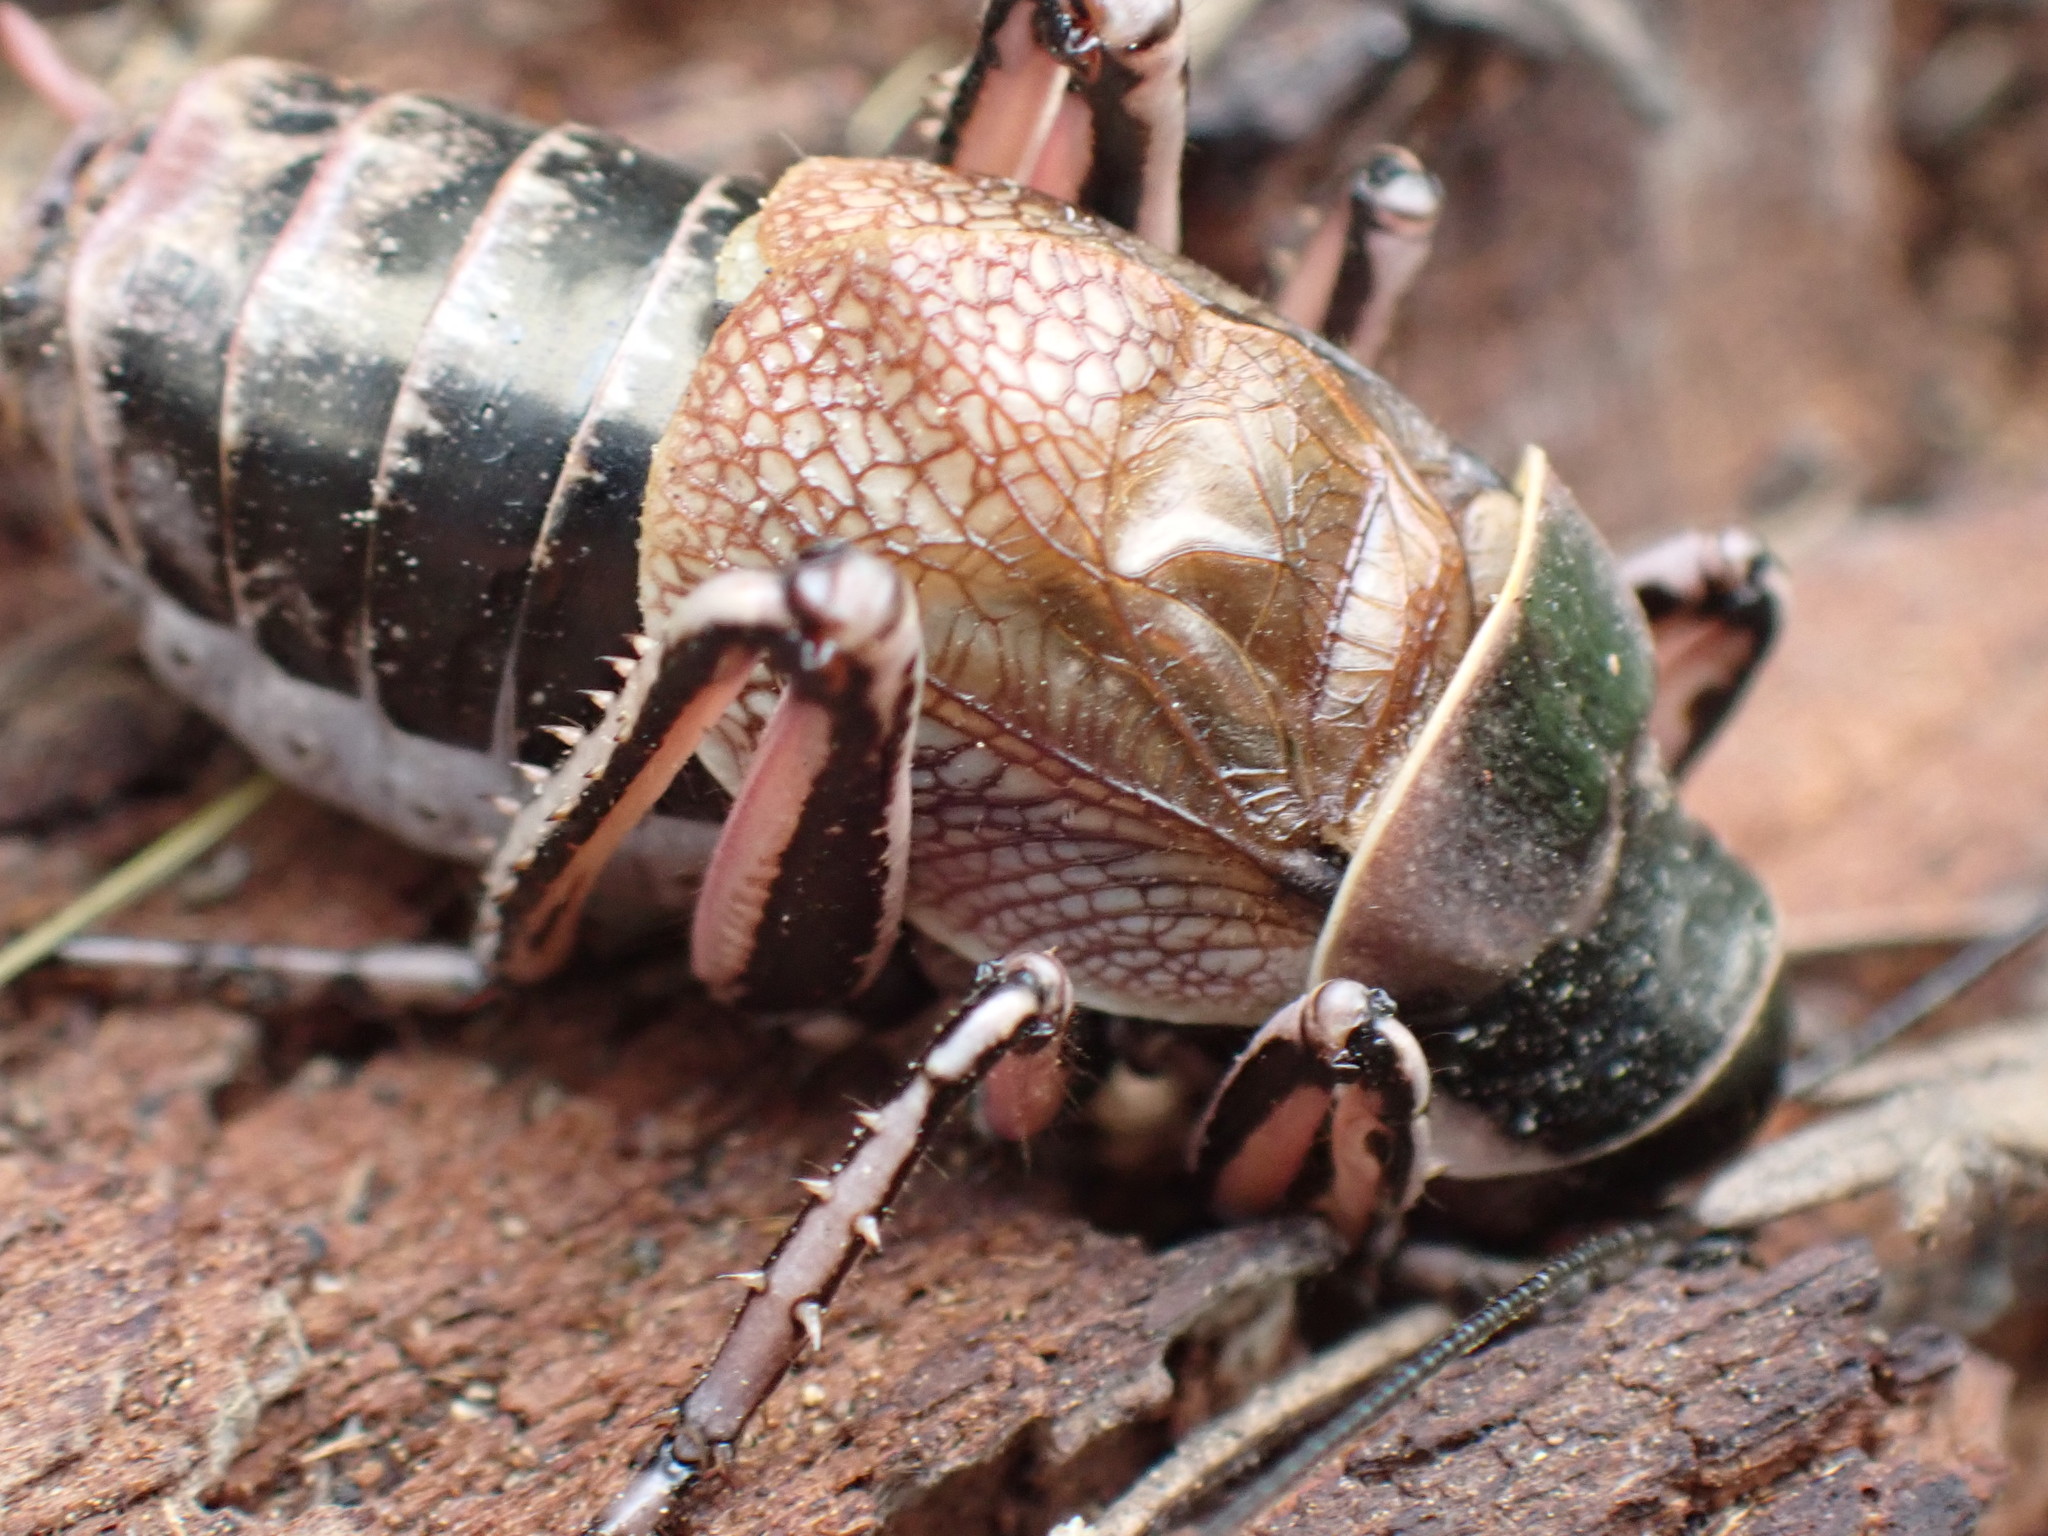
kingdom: Animalia
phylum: Arthropoda
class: Insecta
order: Orthoptera
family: Prophalangopsidae
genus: Cyphoderris
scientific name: Cyphoderris monstrosa
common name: Great grig
